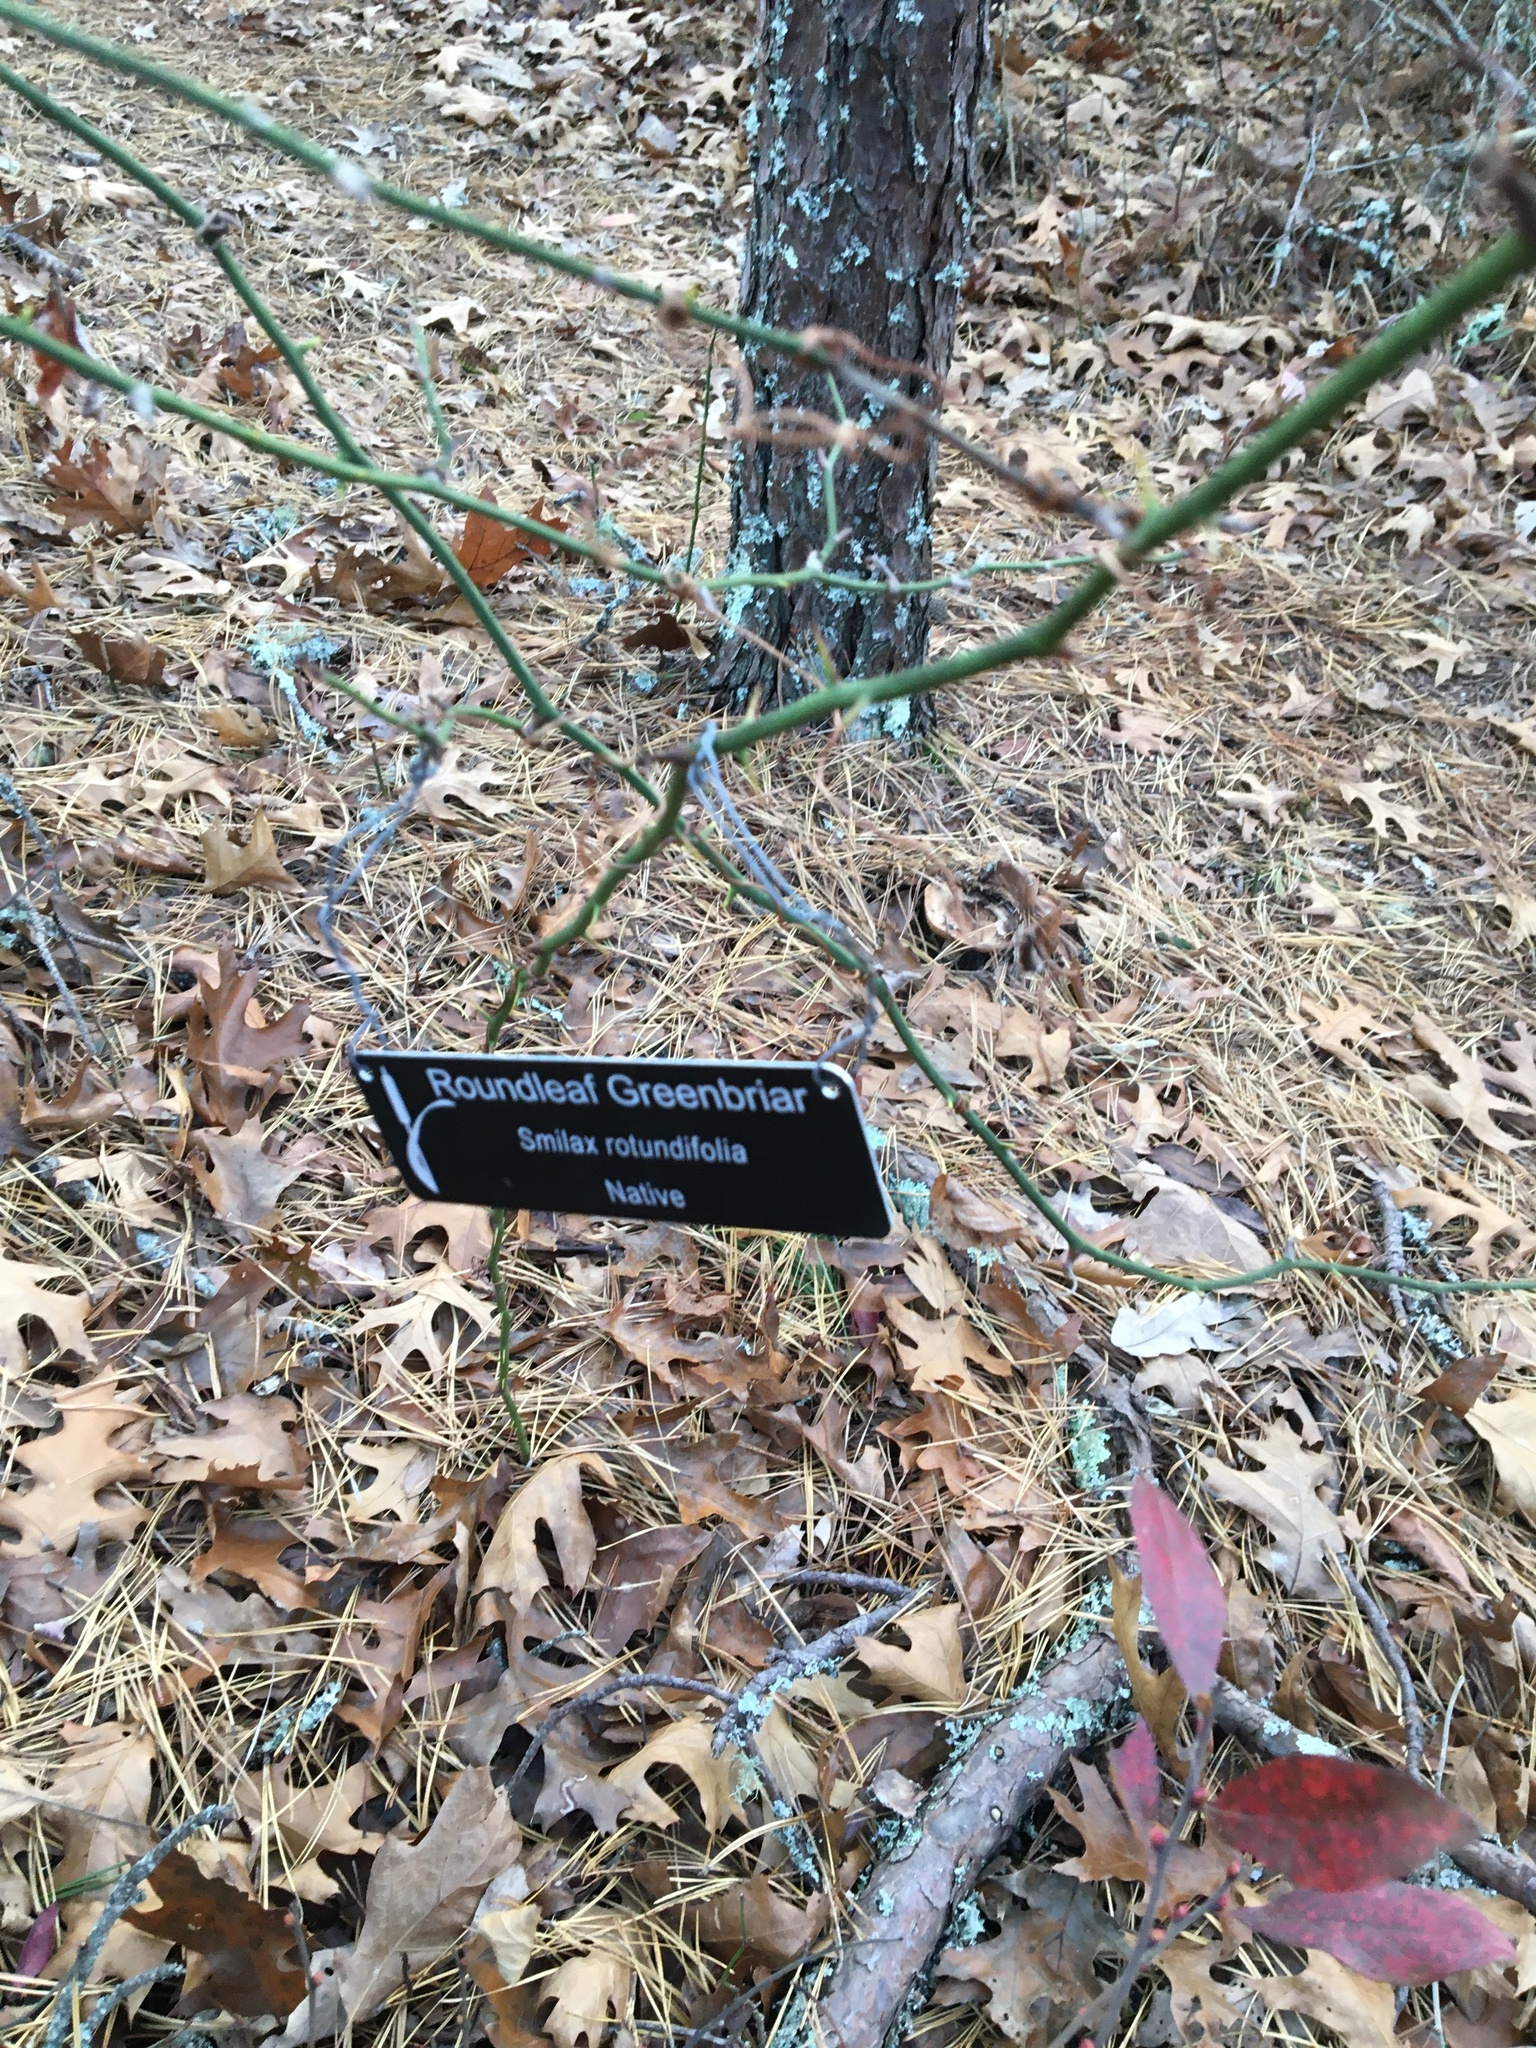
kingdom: Plantae
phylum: Tracheophyta
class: Liliopsida
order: Liliales
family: Smilacaceae
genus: Smilax
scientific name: Smilax rotundifolia
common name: Bullbriar
